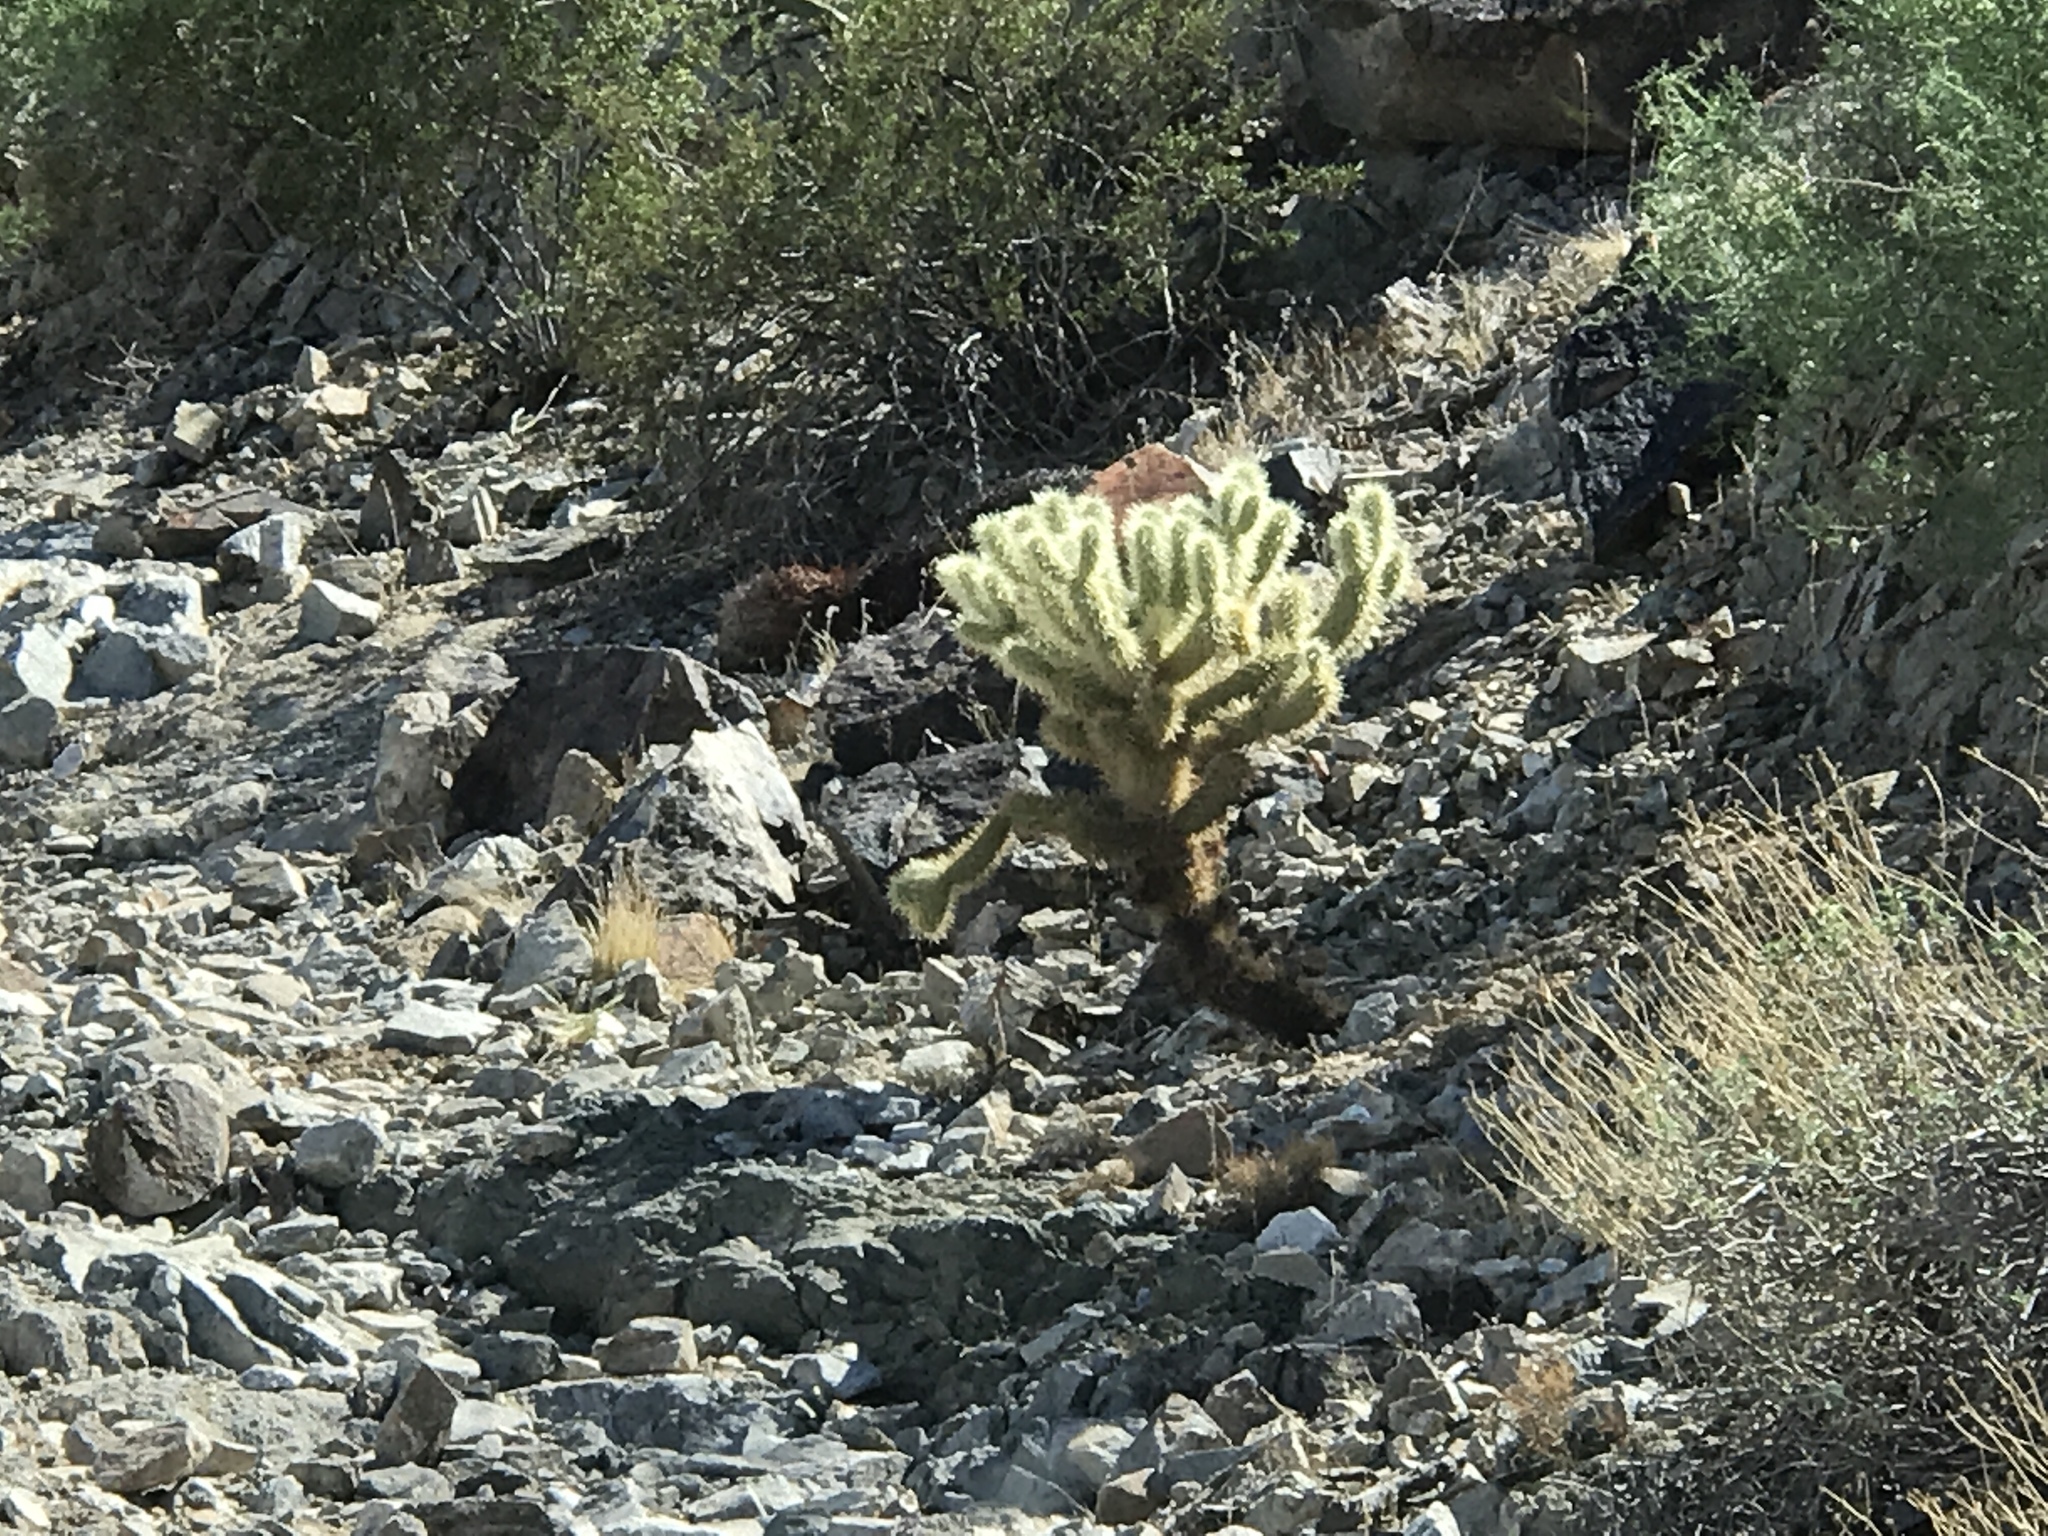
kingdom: Plantae
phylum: Tracheophyta
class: Magnoliopsida
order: Caryophyllales
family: Cactaceae
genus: Cylindropuntia
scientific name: Cylindropuntia fosbergii
